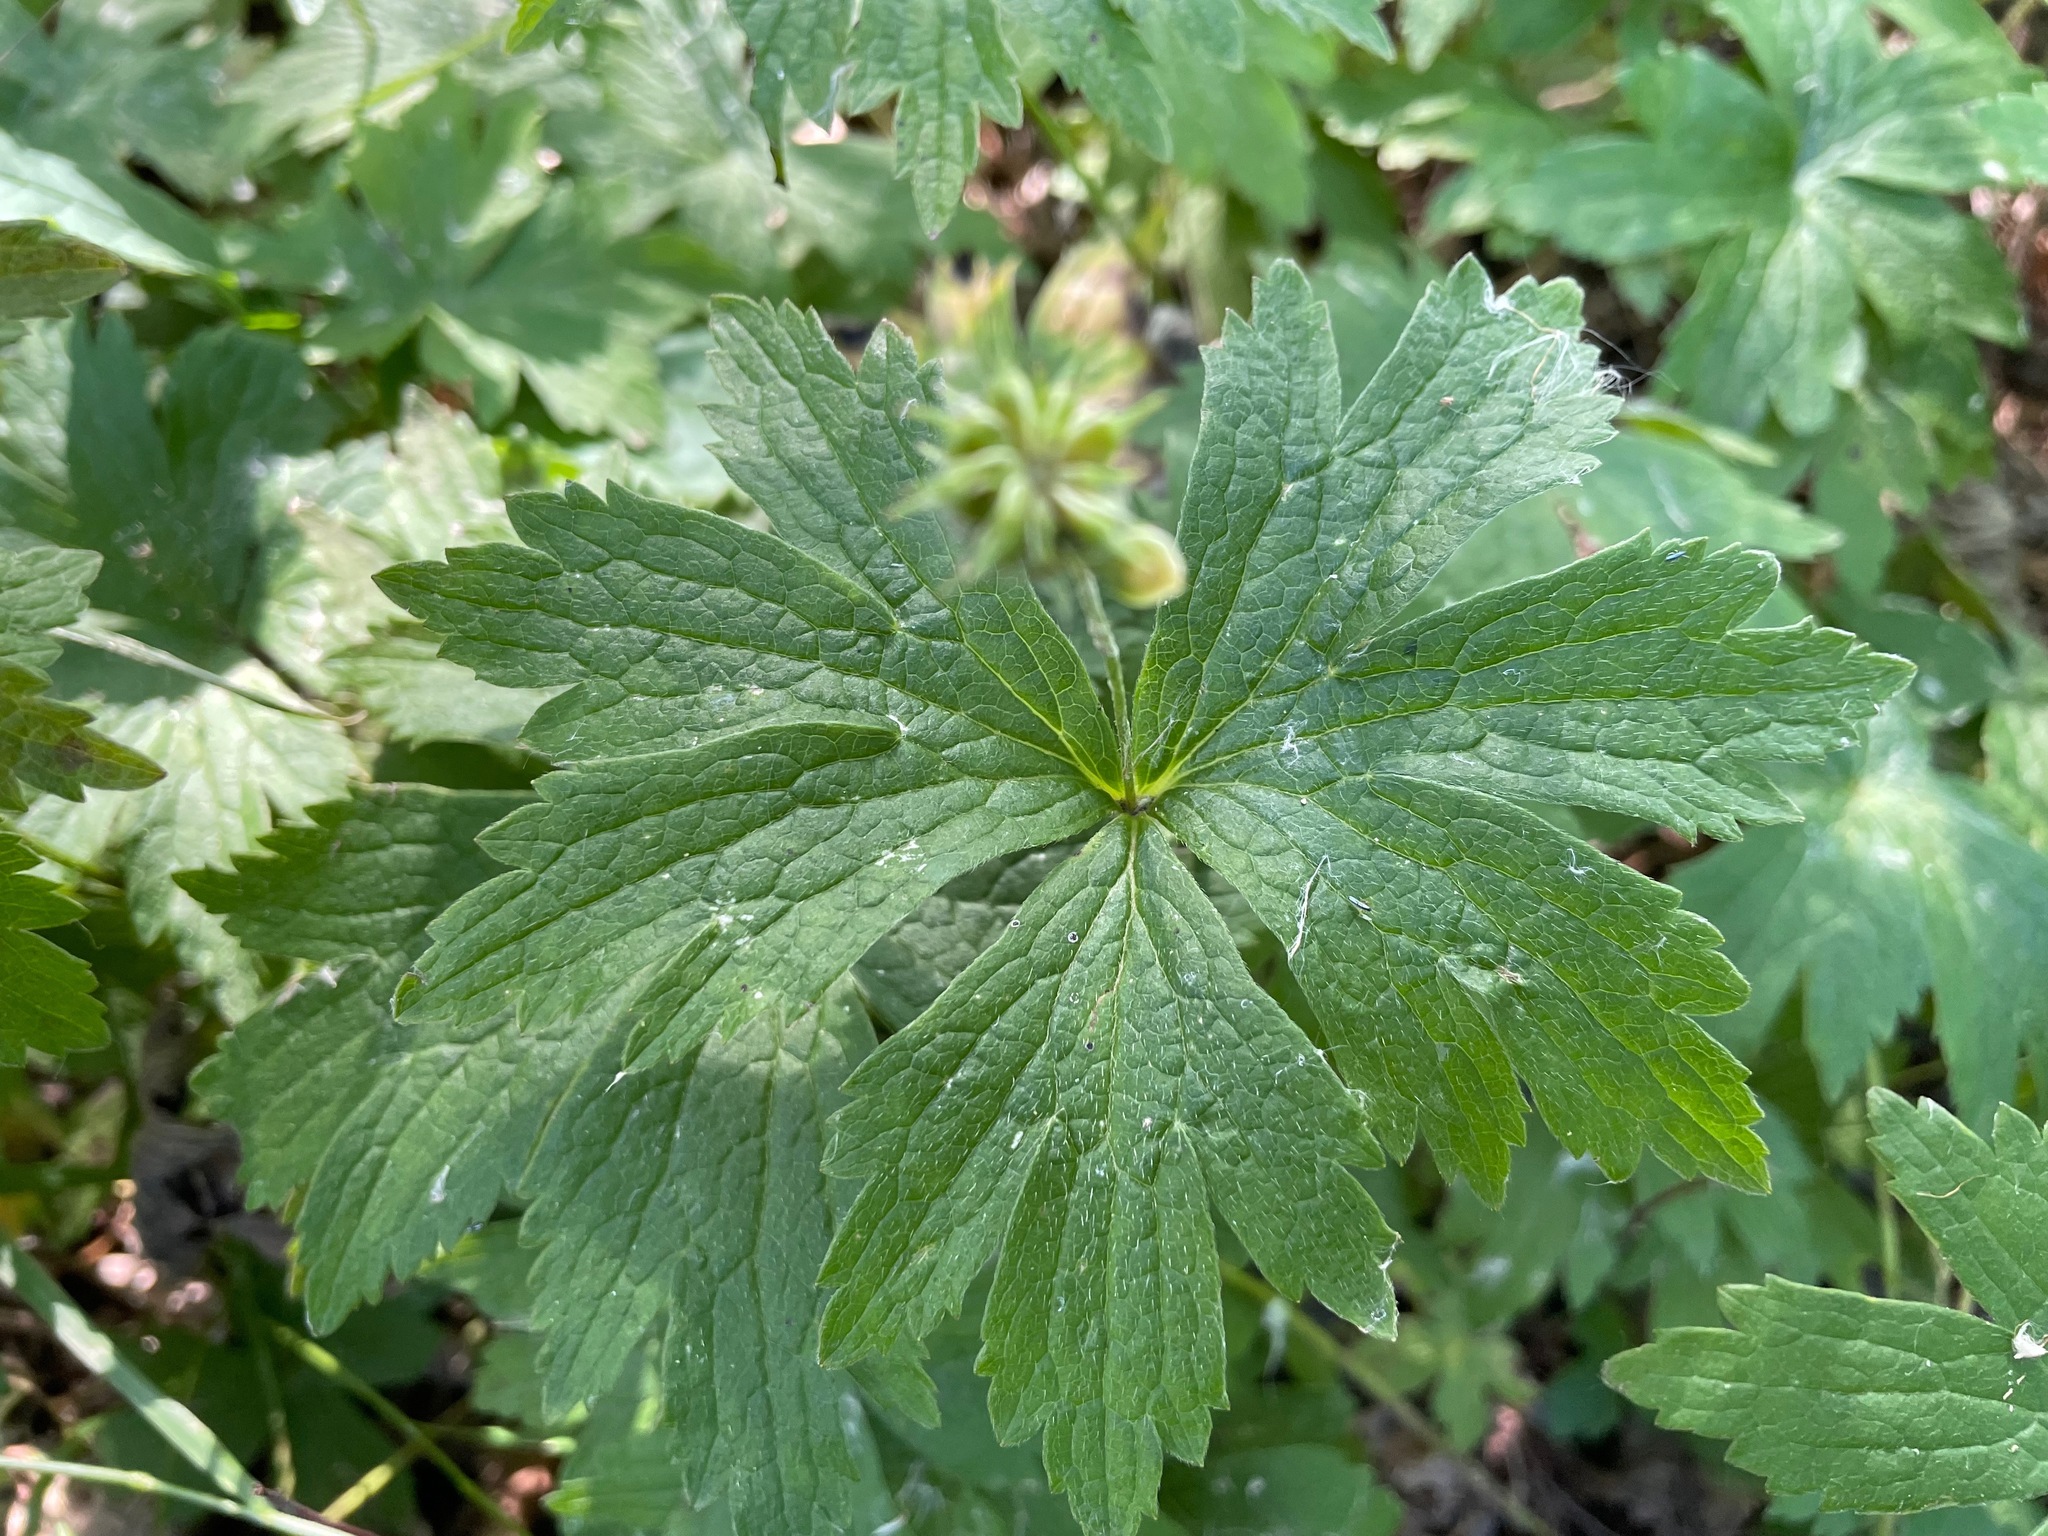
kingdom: Plantae
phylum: Tracheophyta
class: Magnoliopsida
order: Ranunculales
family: Ranunculaceae
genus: Anemonastrum
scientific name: Anemonastrum canadense
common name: Canada anemone
